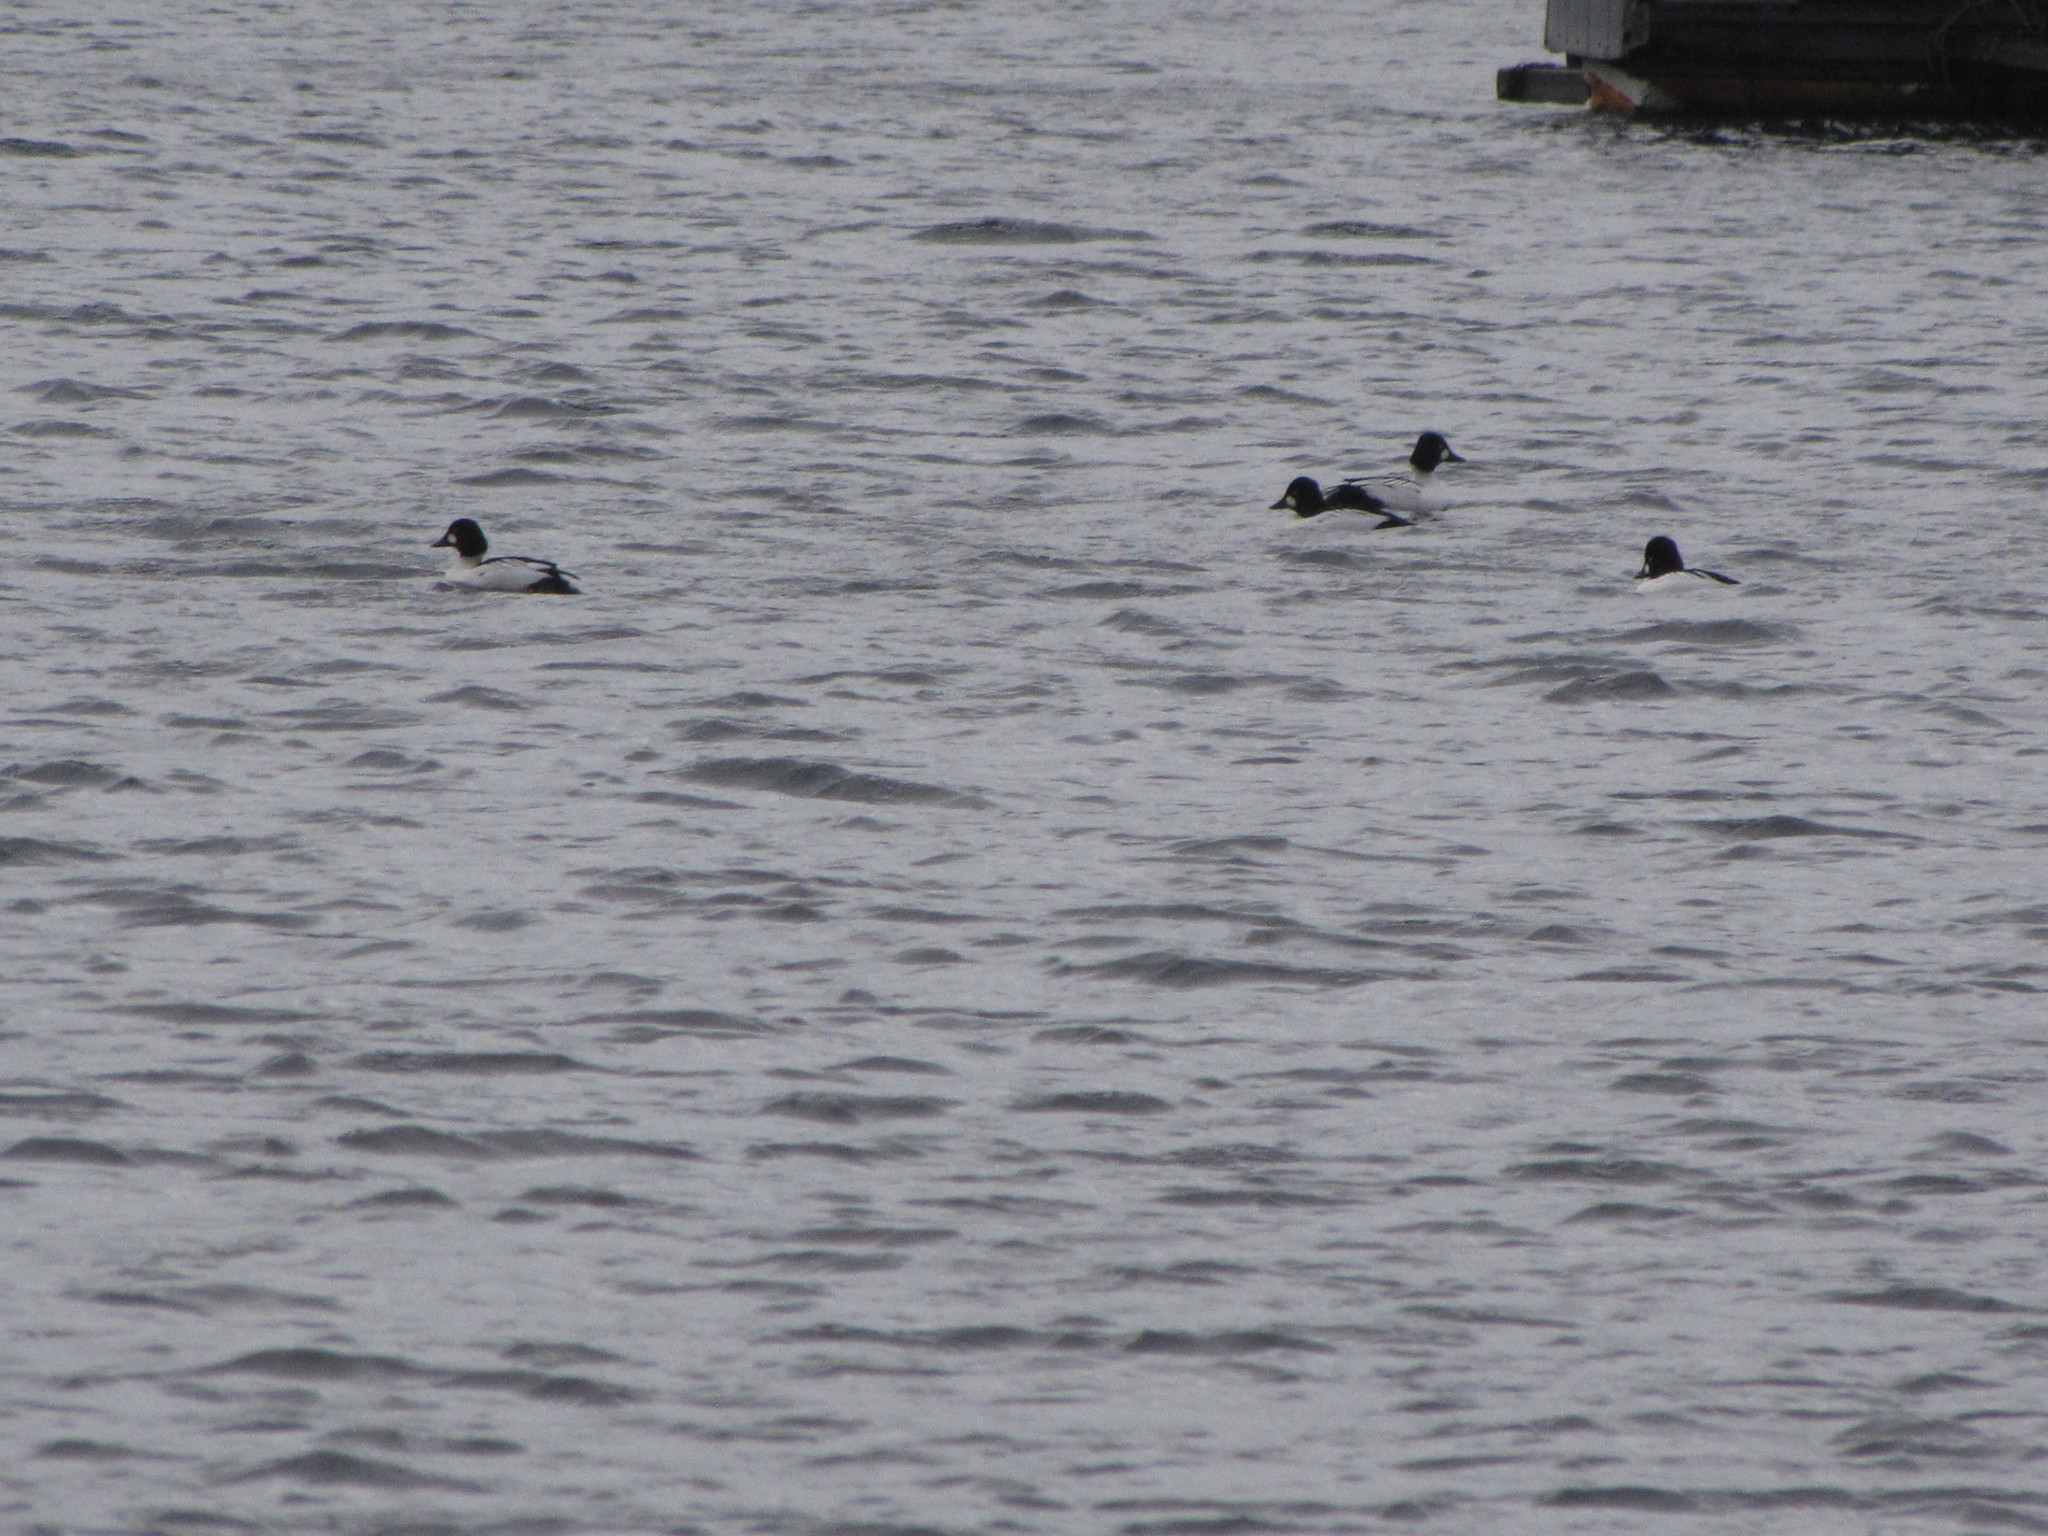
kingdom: Animalia
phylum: Chordata
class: Aves
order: Anseriformes
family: Anatidae
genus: Bucephala
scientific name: Bucephala clangula
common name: Common goldeneye
